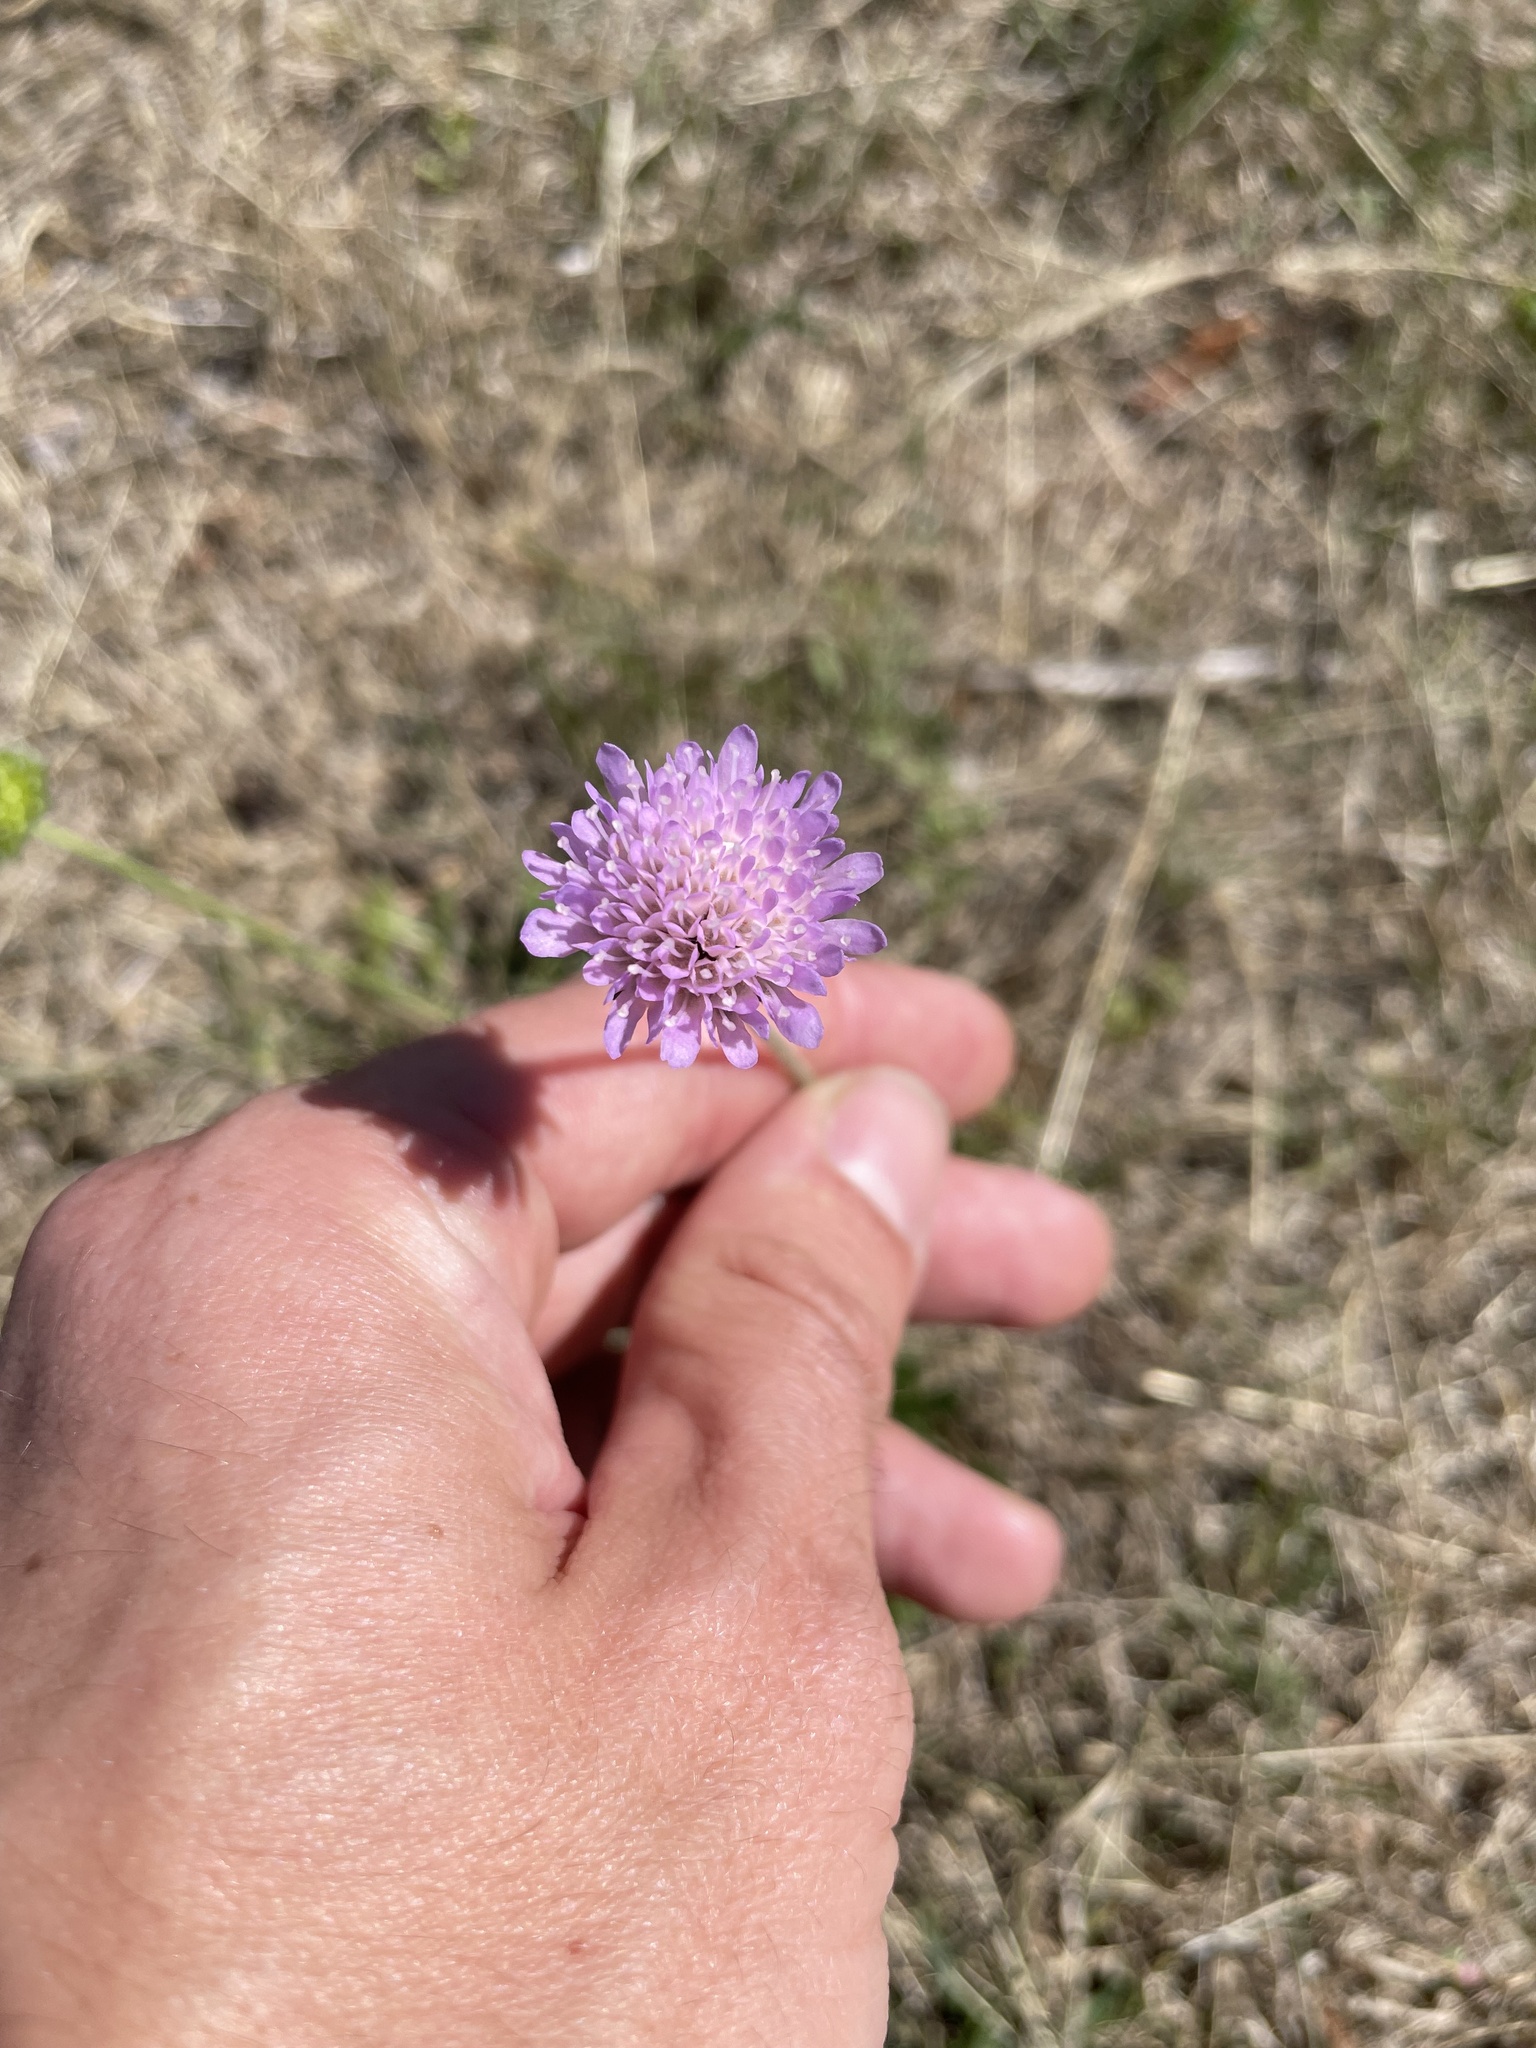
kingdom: Plantae
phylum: Tracheophyta
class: Magnoliopsida
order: Dipsacales
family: Caprifoliaceae
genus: Knautia
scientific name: Knautia arvensis
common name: Field scabiosa
